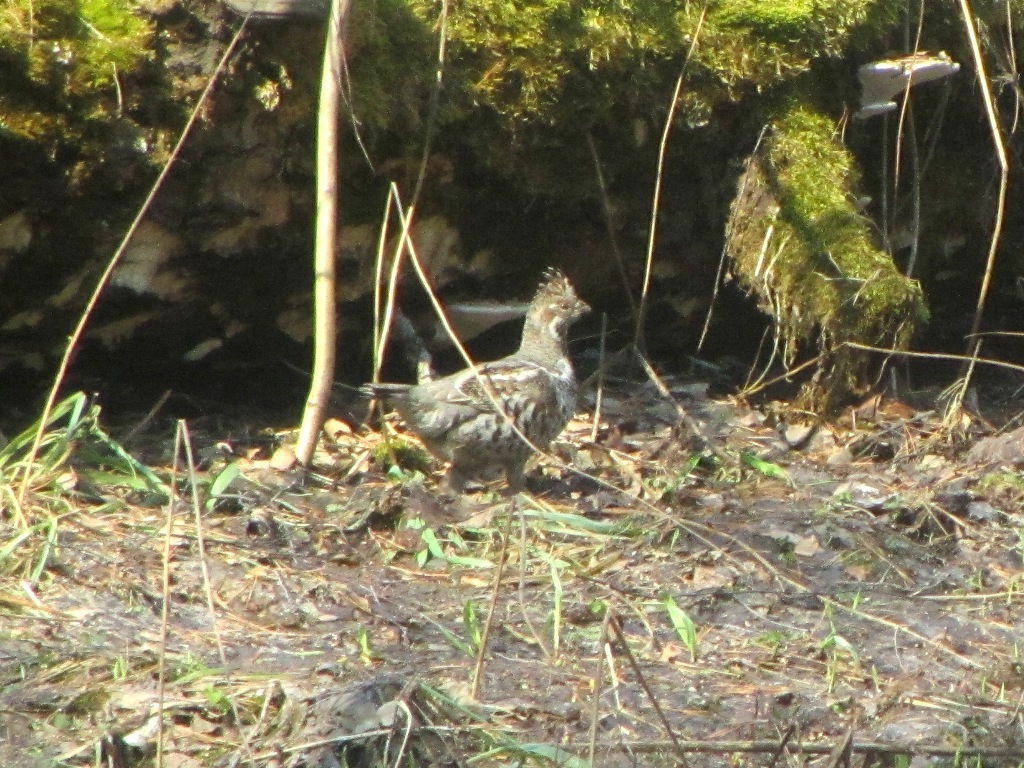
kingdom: Animalia
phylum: Chordata
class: Aves
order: Galliformes
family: Phasianidae
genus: Tetrastes
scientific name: Tetrastes bonasia
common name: Hazel grouse
